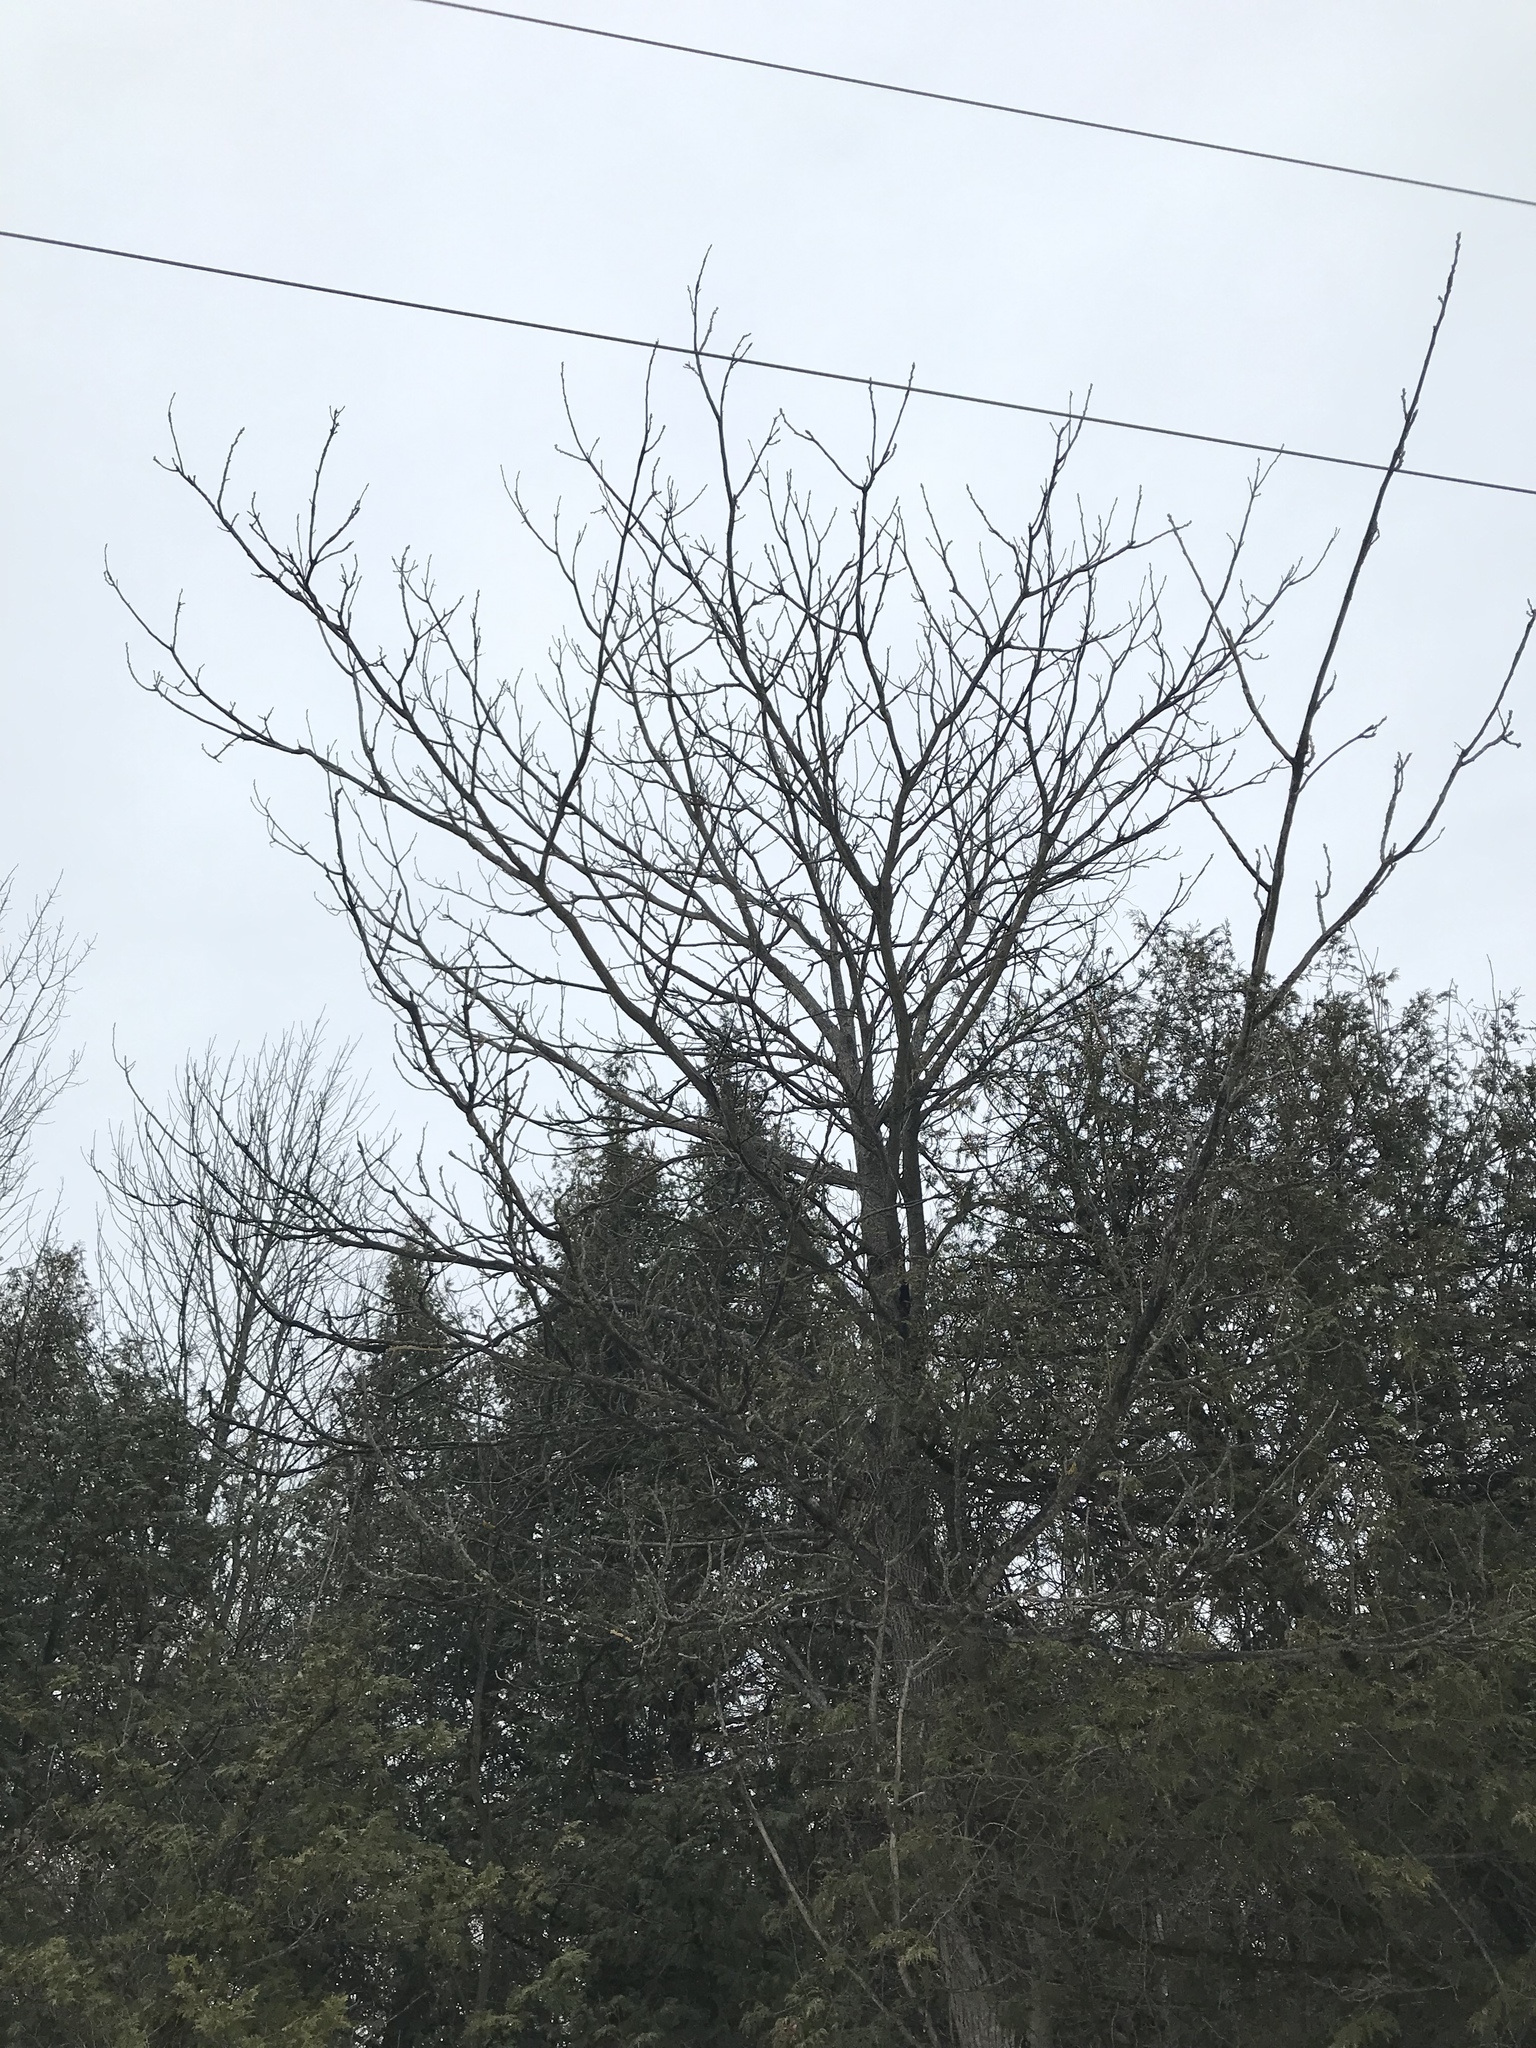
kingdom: Plantae
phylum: Tracheophyta
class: Magnoliopsida
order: Fagales
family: Juglandaceae
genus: Juglans
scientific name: Juglans cinerea
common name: Butternut
